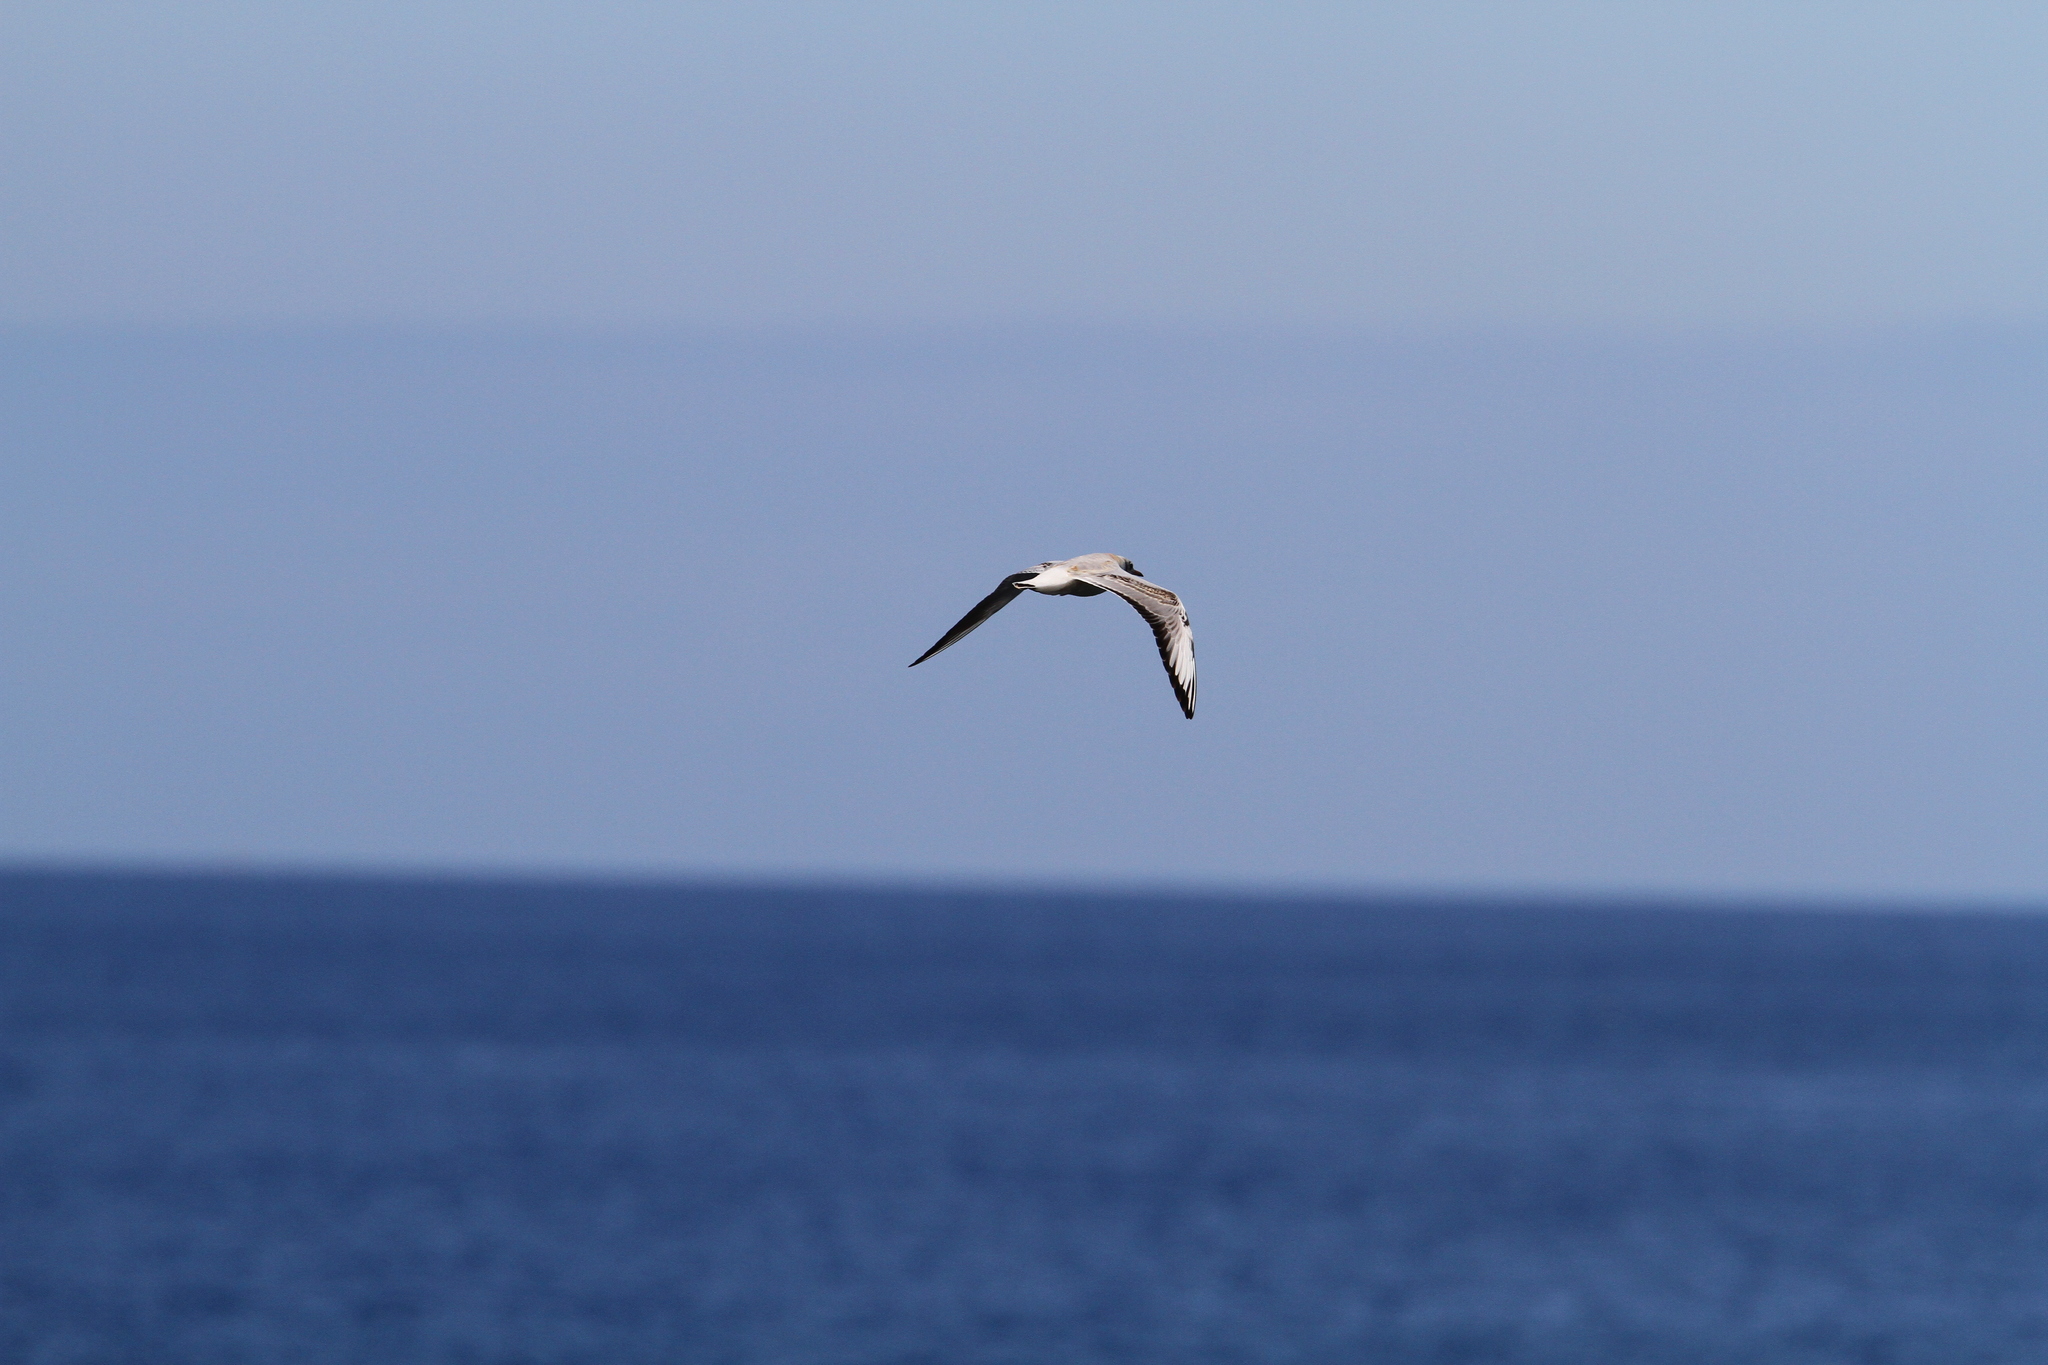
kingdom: Animalia
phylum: Chordata
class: Aves
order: Charadriiformes
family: Laridae
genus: Chroicocephalus
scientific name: Chroicocephalus ridibundus
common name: Black-headed gull
